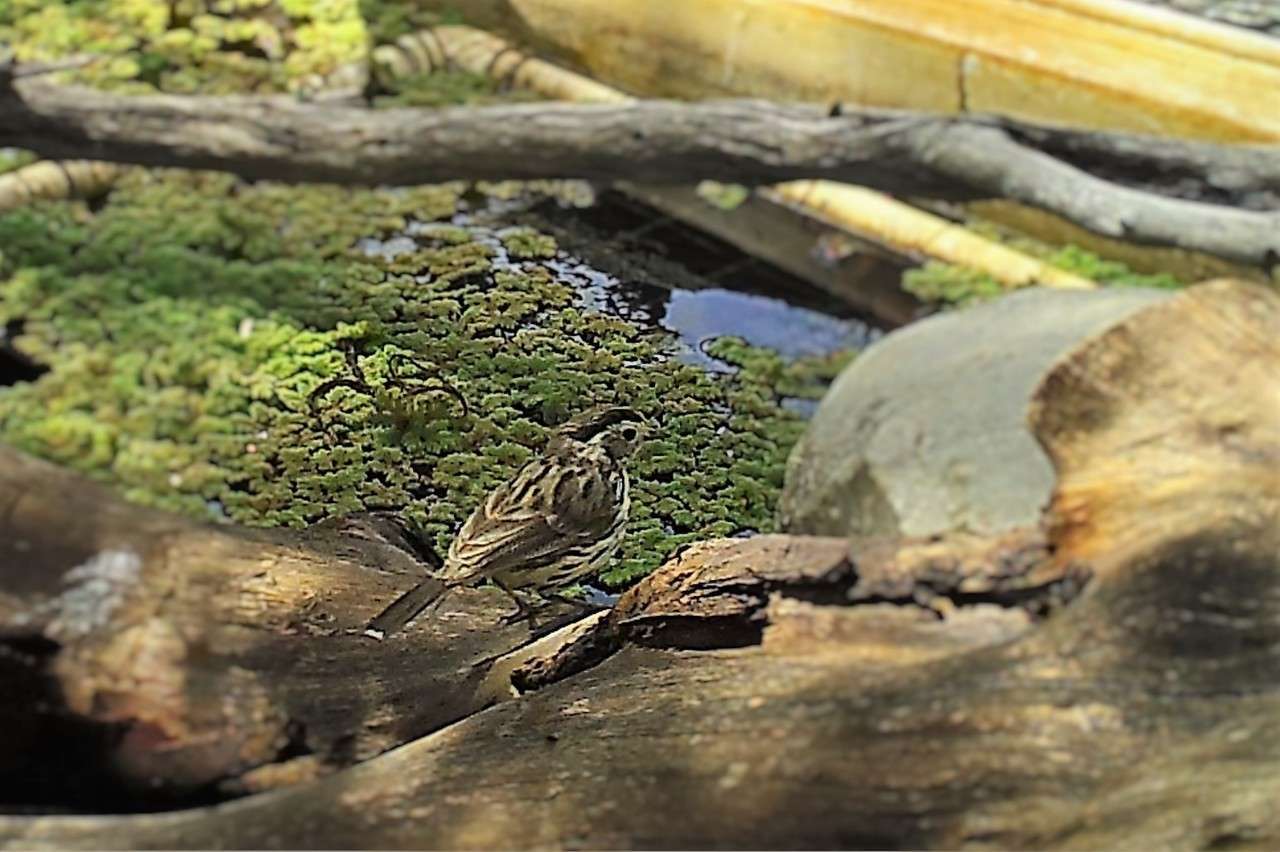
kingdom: Animalia
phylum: Chordata
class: Aves
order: Passeriformes
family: Acanthizidae
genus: Pyrrholaemus
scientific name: Pyrrholaemus sagittatus
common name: Speckled warbler
